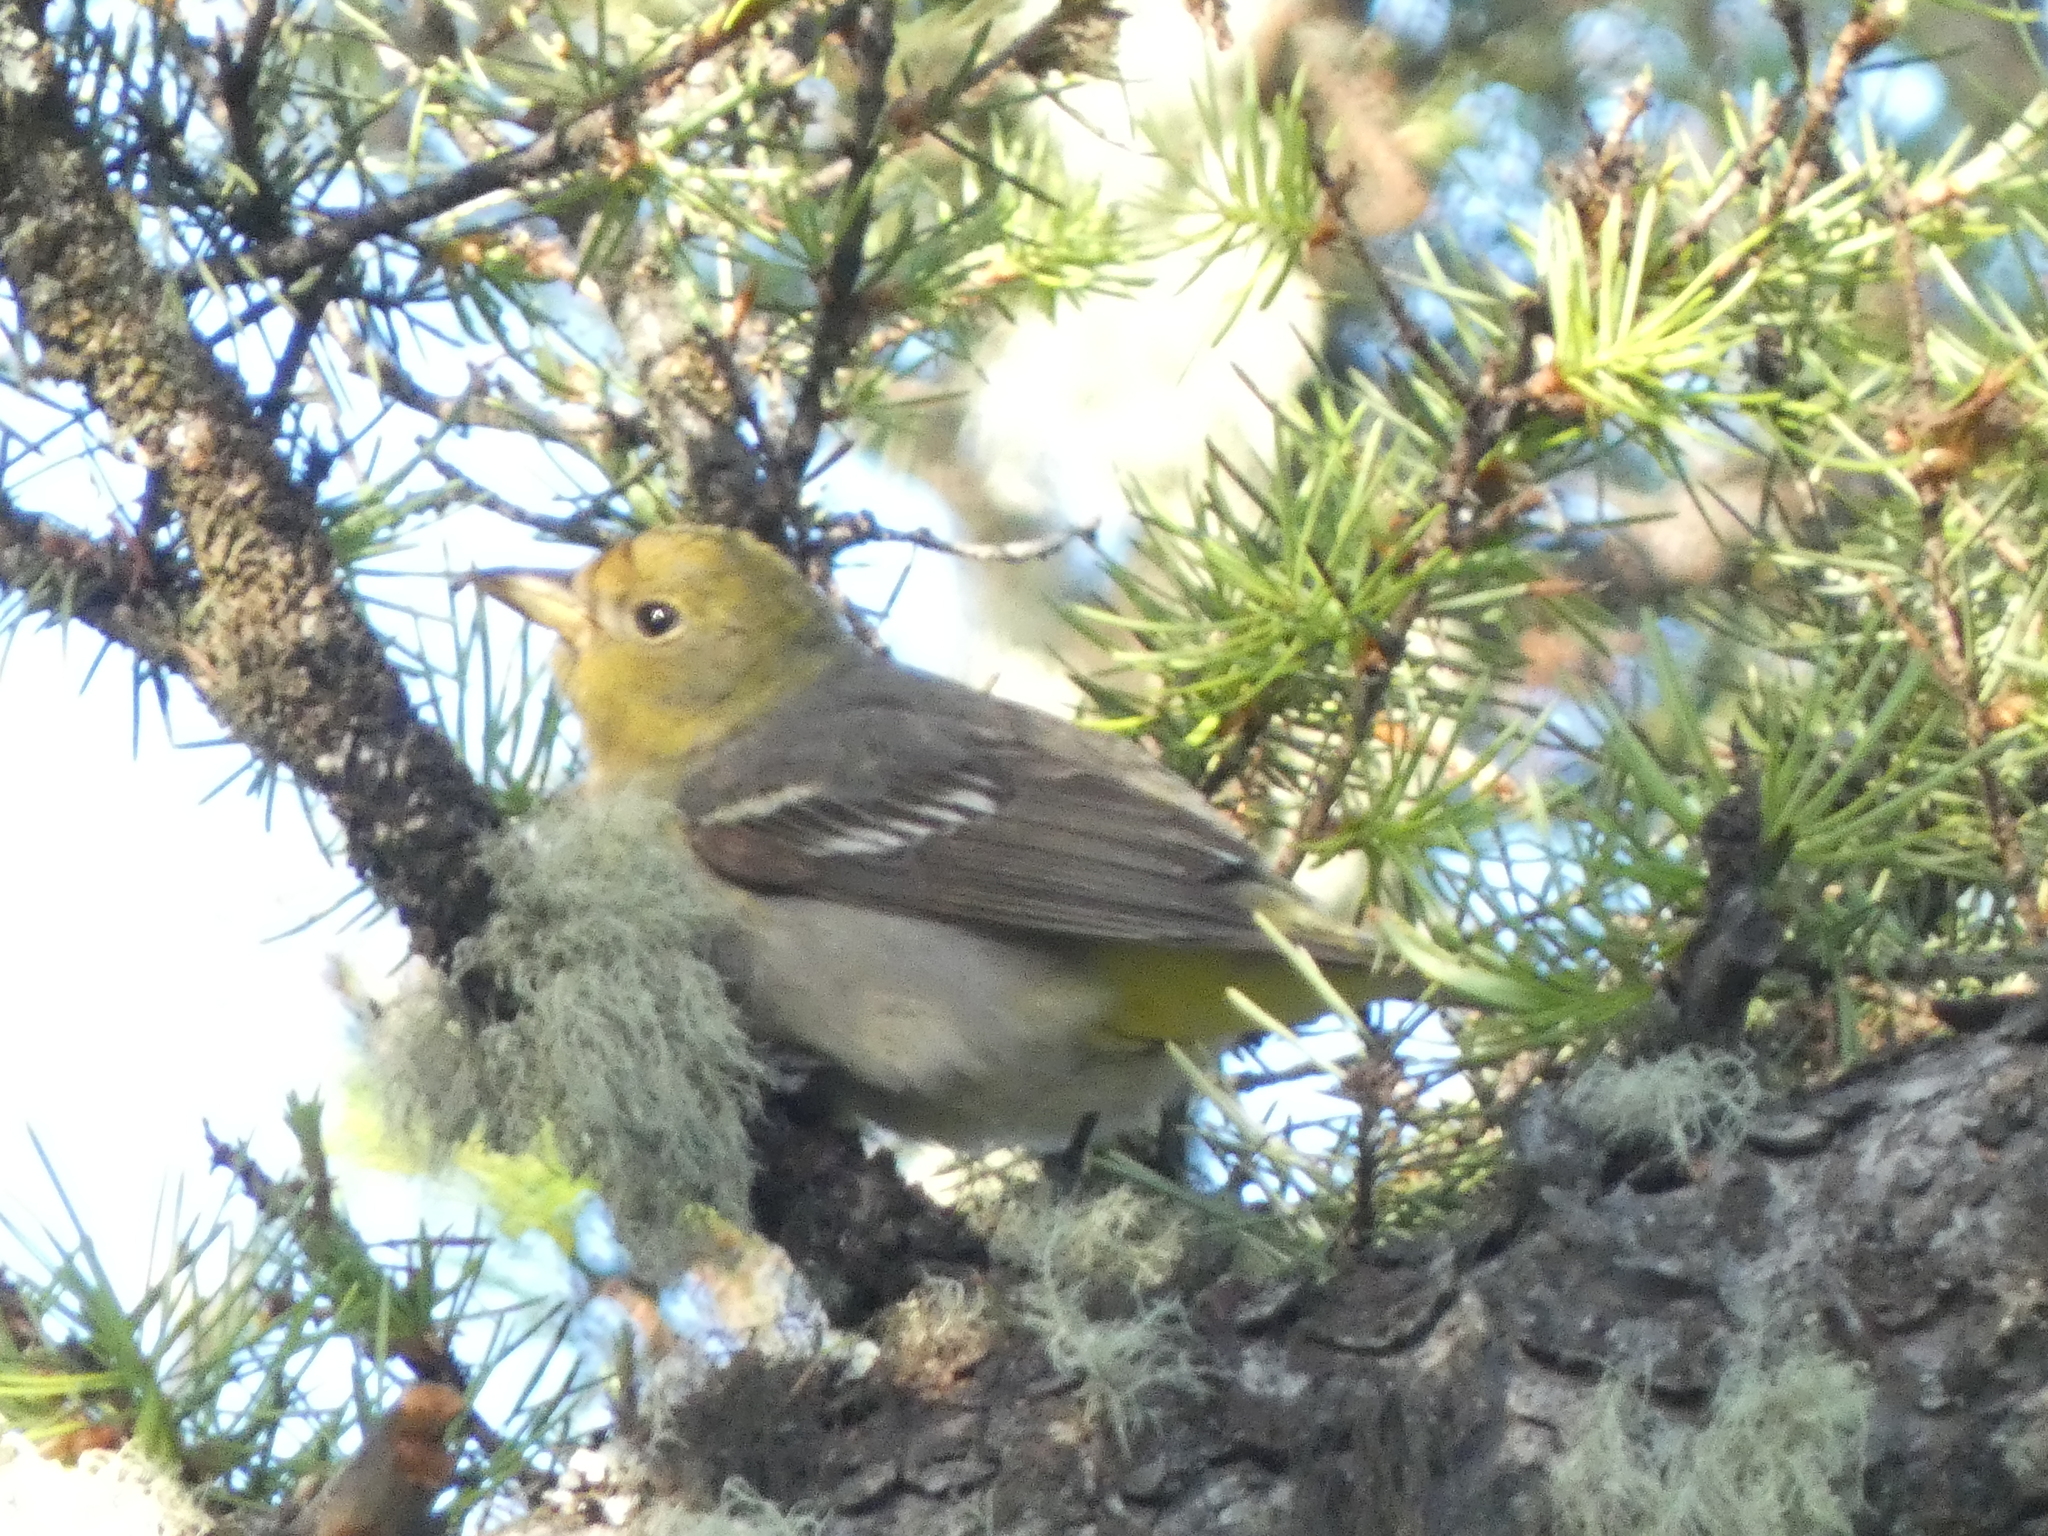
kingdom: Animalia
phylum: Chordata
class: Aves
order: Passeriformes
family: Cardinalidae
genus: Piranga
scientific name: Piranga ludoviciana
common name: Western tanager
